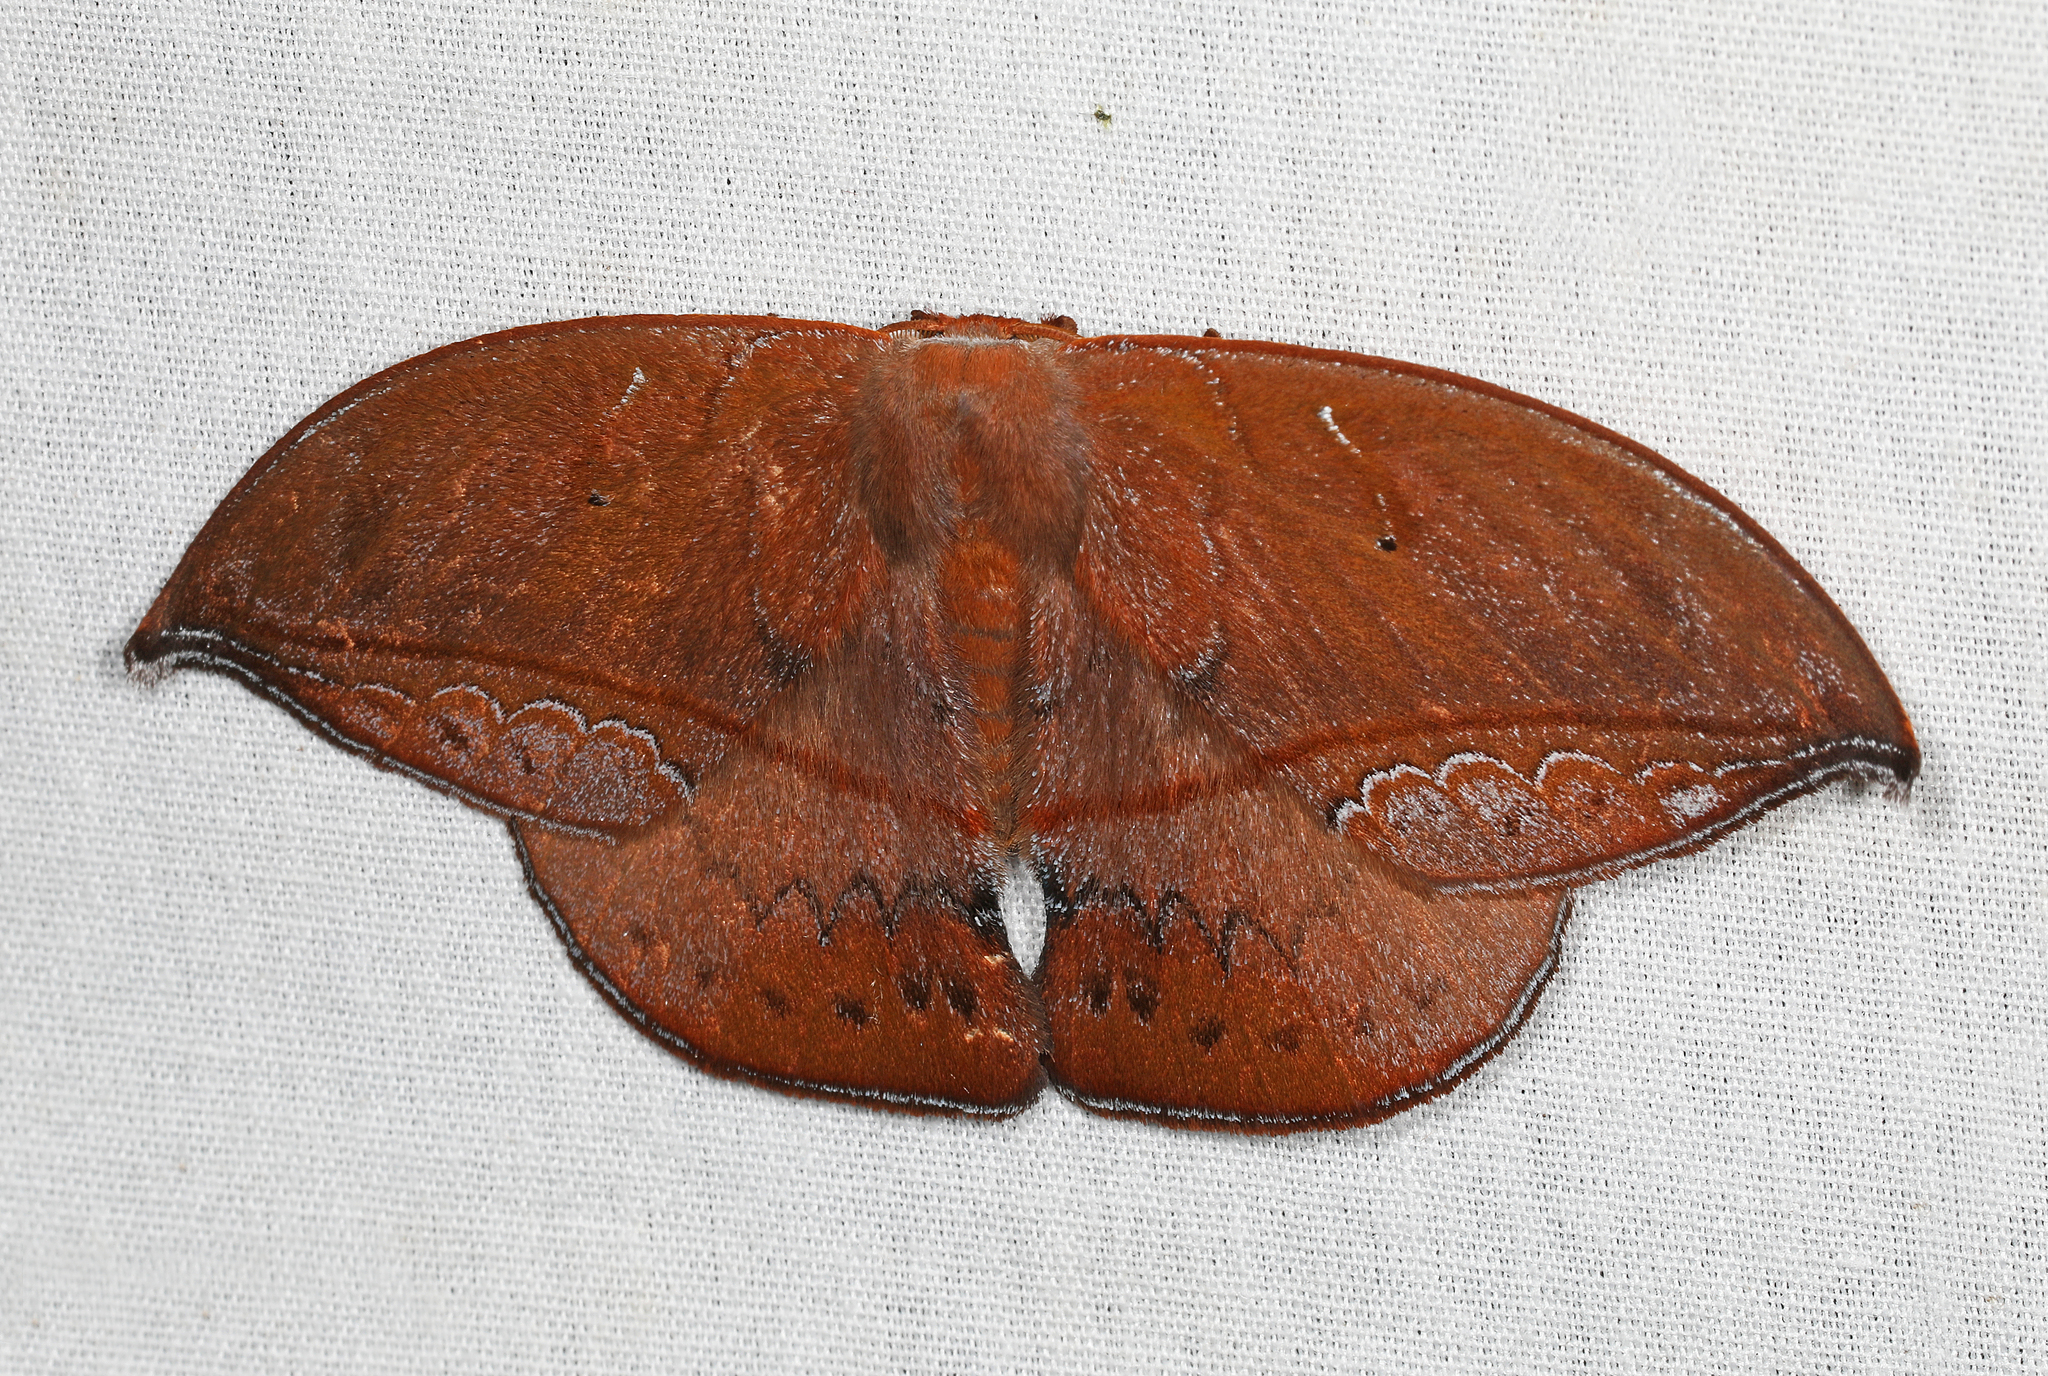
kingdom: Animalia
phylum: Arthropoda
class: Insecta
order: Lepidoptera
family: Saturniidae
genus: Oxytenis
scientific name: Oxytenis plettina
